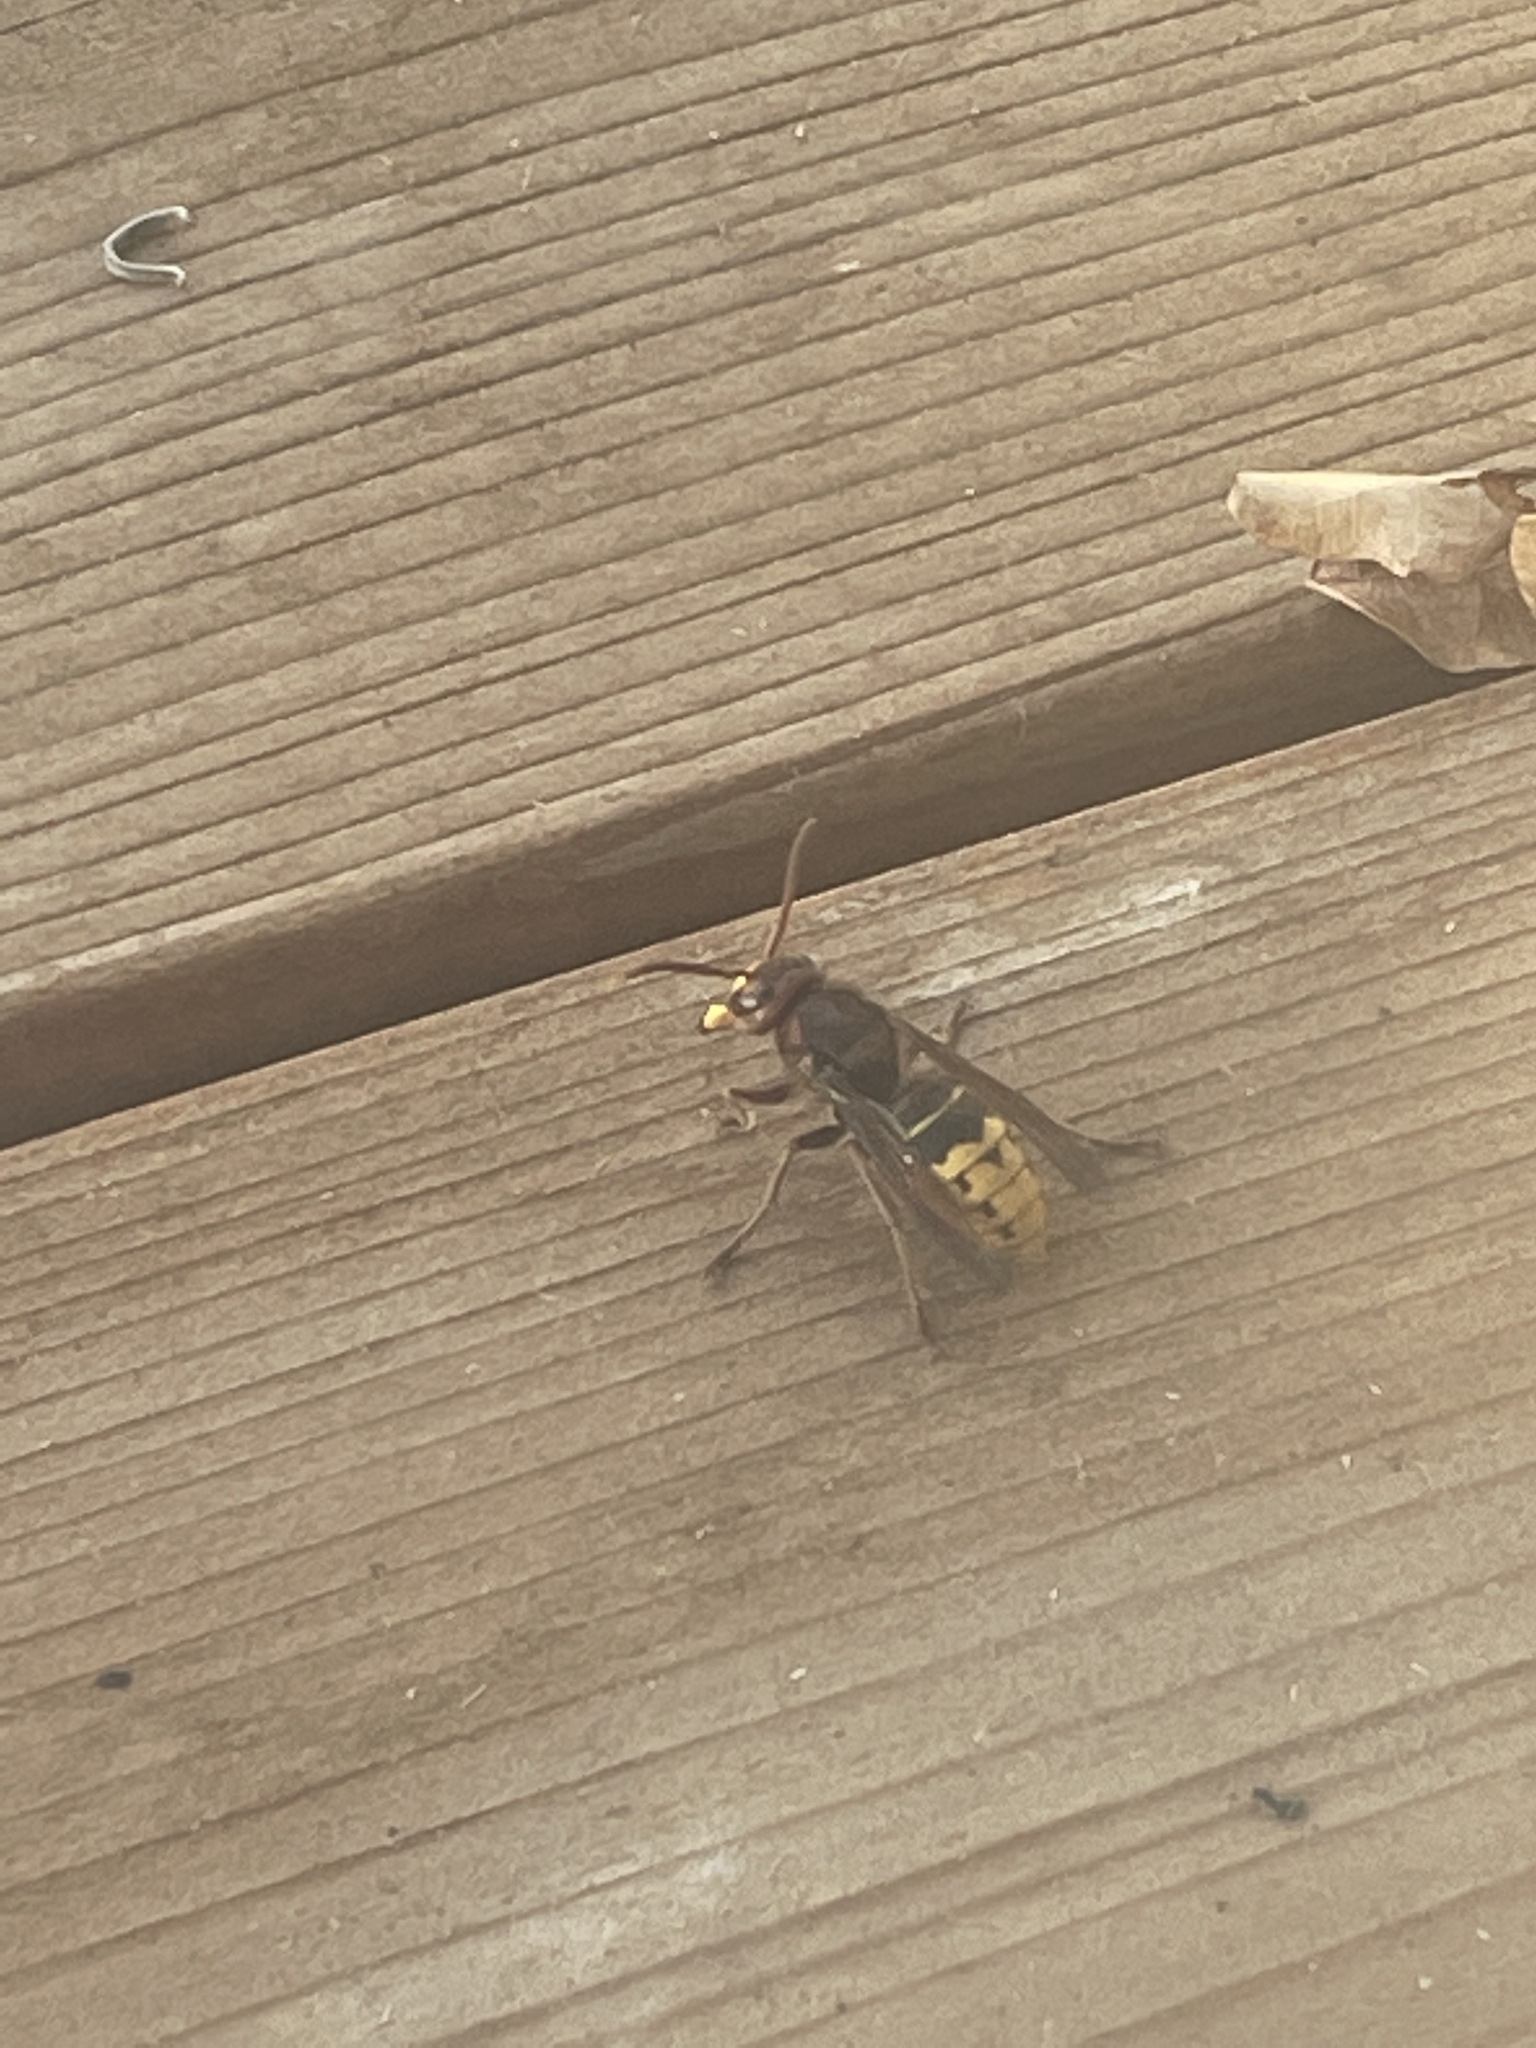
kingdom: Animalia
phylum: Arthropoda
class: Insecta
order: Hymenoptera
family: Vespidae
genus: Vespa
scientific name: Vespa crabro
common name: Hornet
